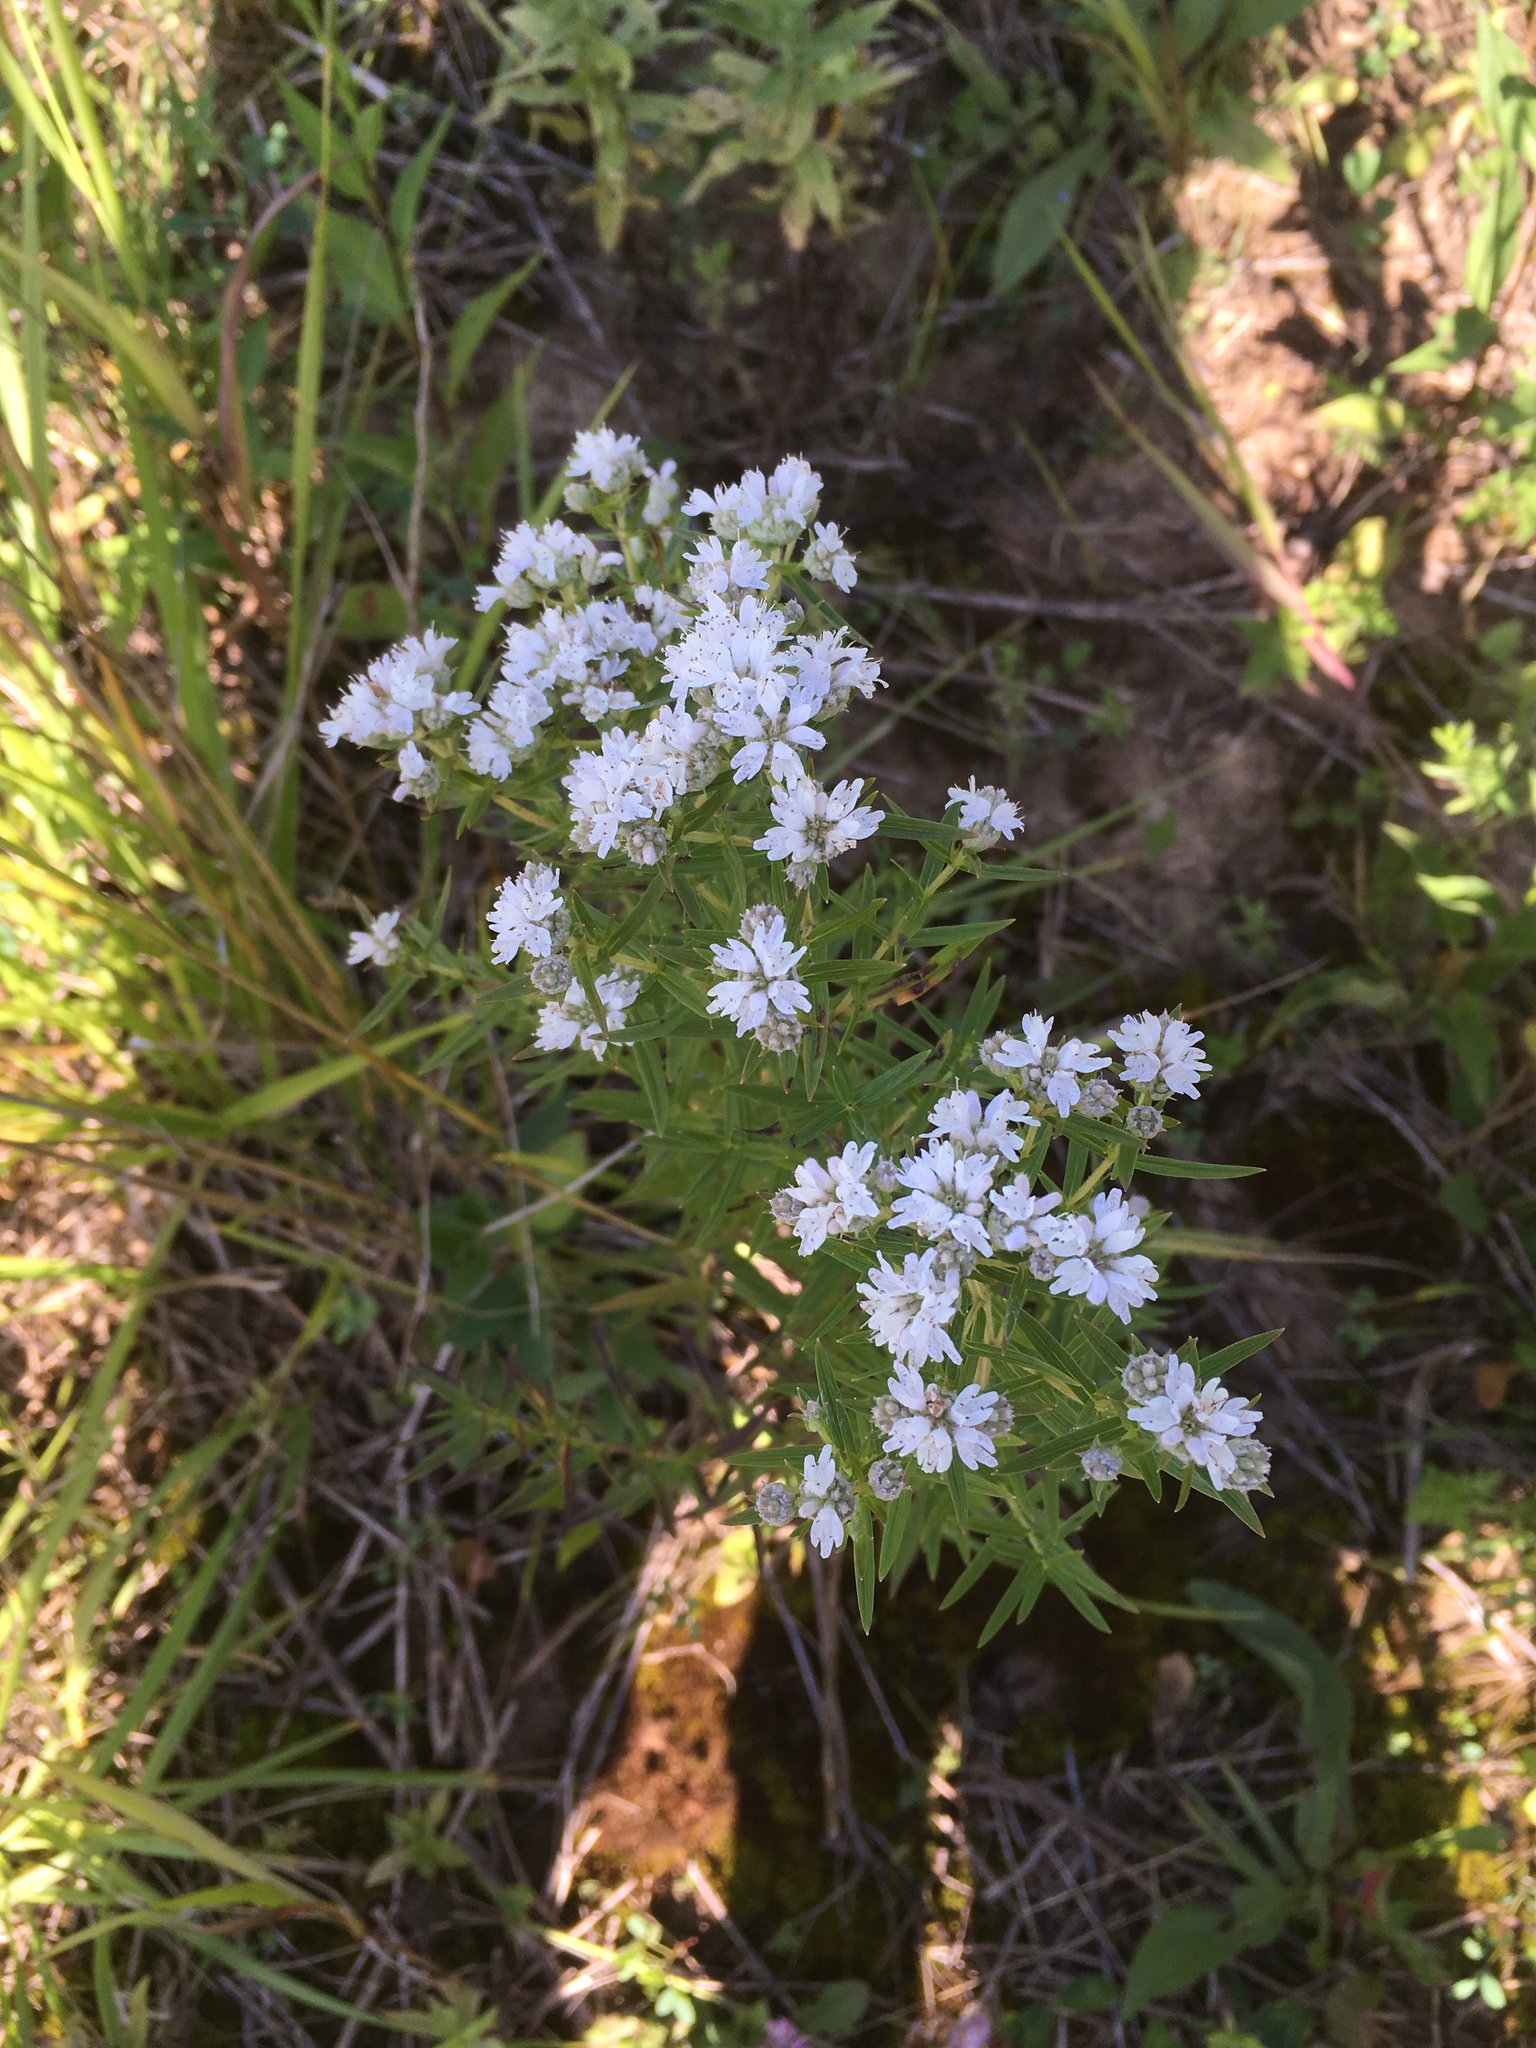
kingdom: Plantae
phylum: Tracheophyta
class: Magnoliopsida
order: Lamiales
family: Lamiaceae
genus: Pycnanthemum
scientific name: Pycnanthemum virginianum
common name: Virginia mountain-mint
